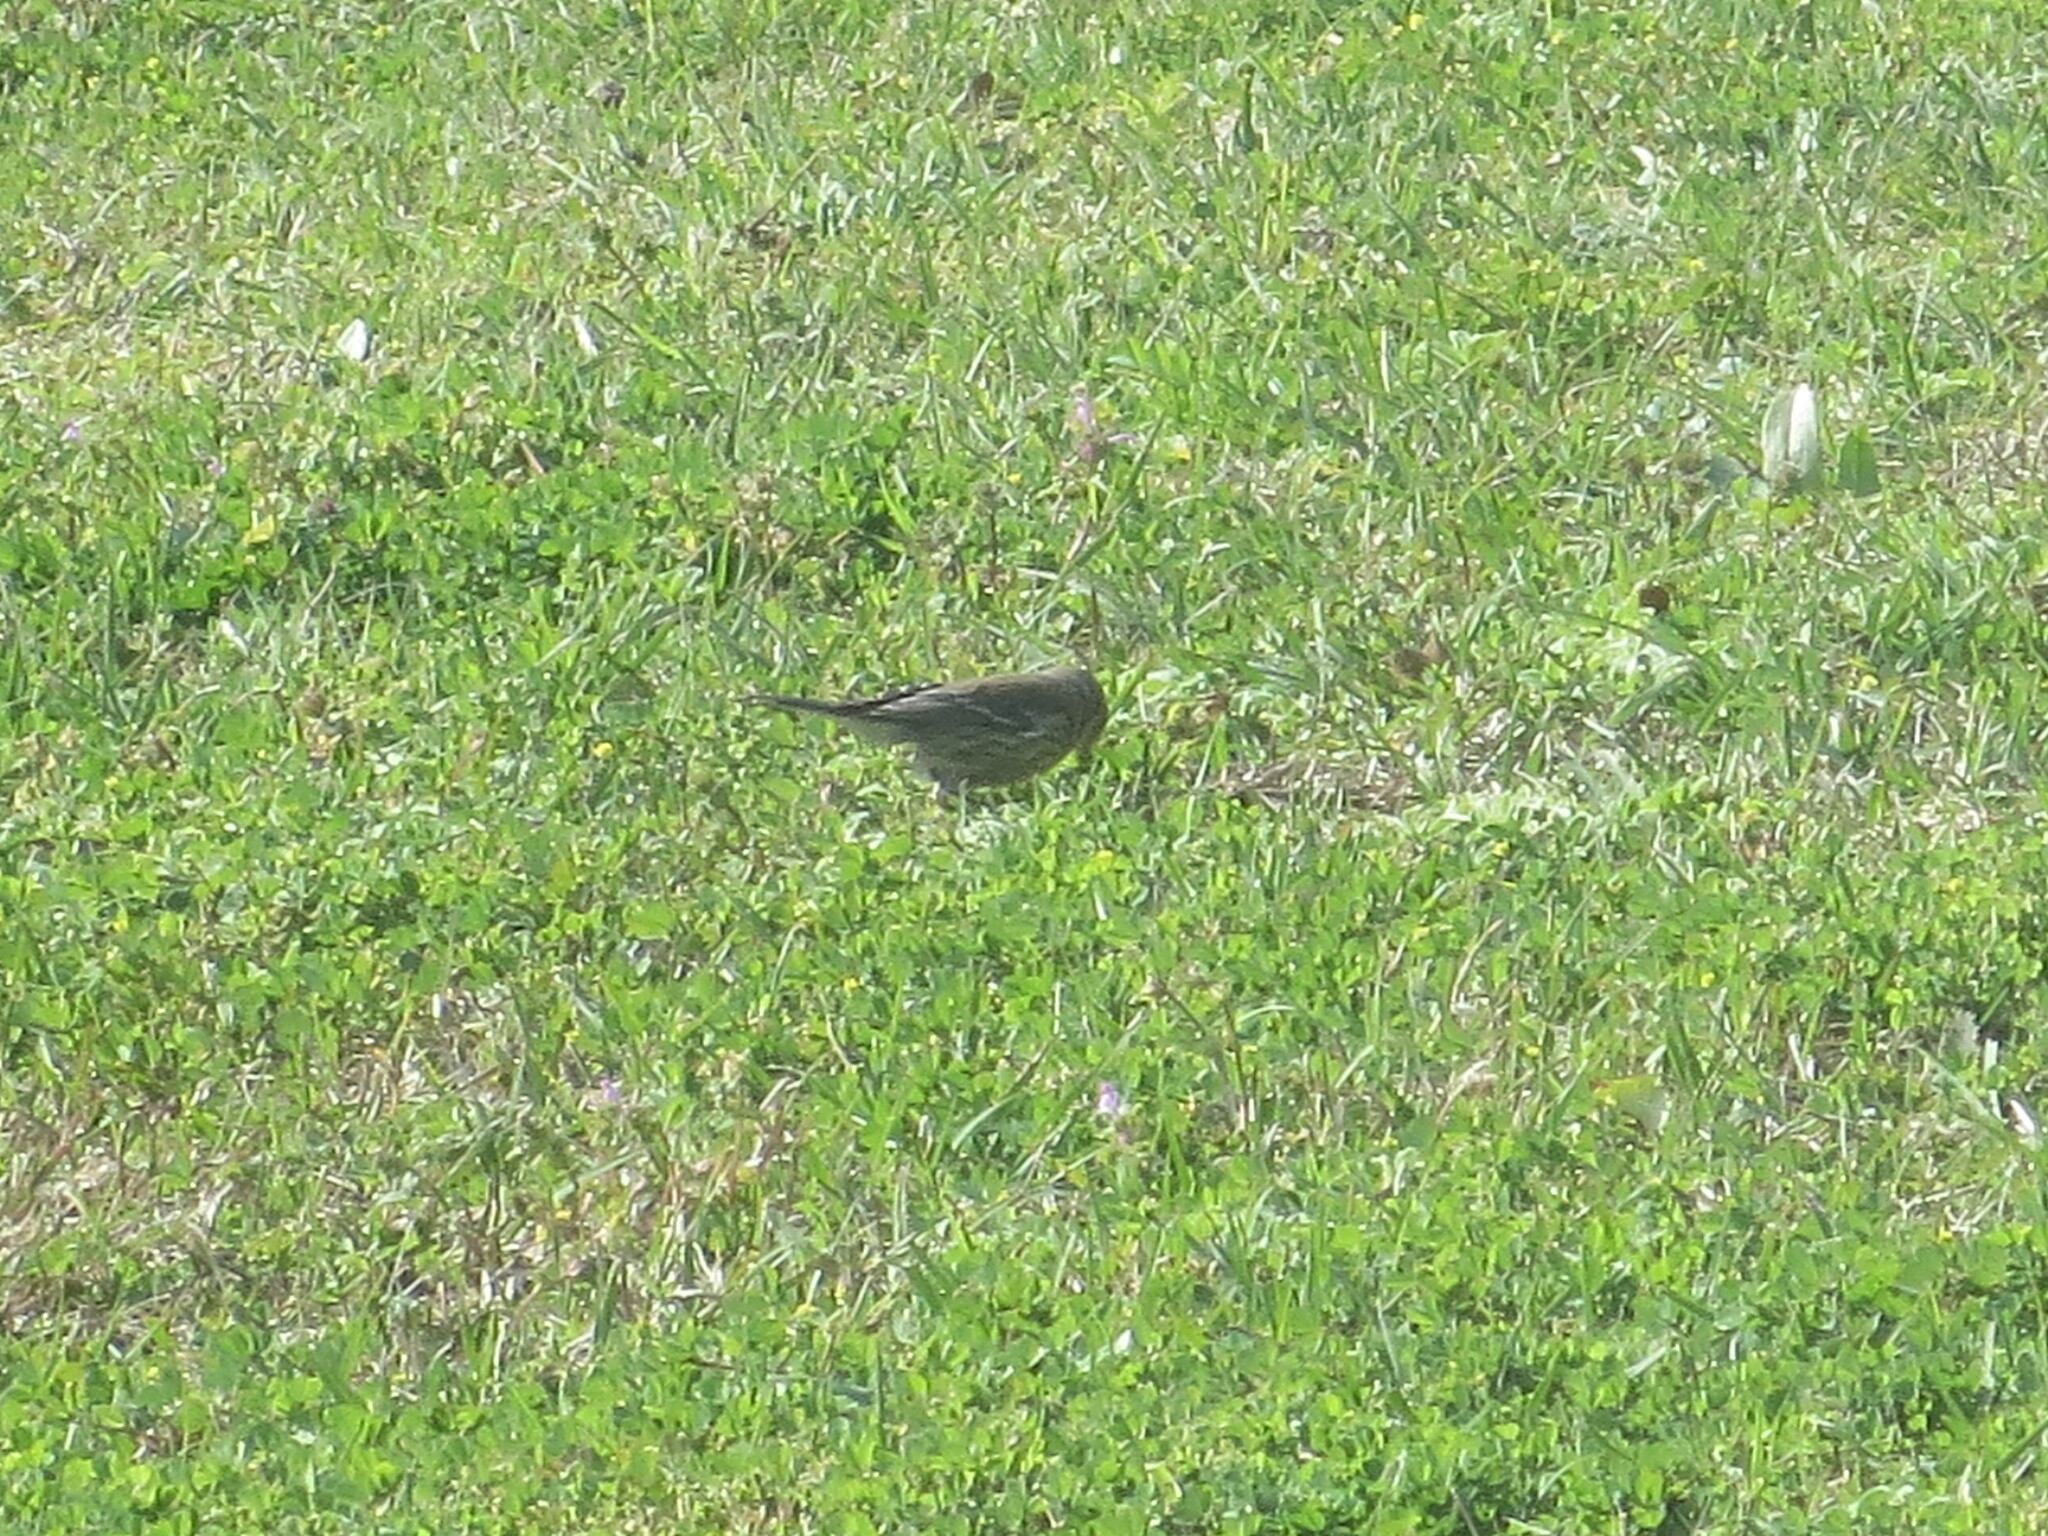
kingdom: Animalia
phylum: Chordata
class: Aves
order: Passeriformes
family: Parulidae
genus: Setophaga
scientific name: Setophaga coronata
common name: Myrtle warbler
